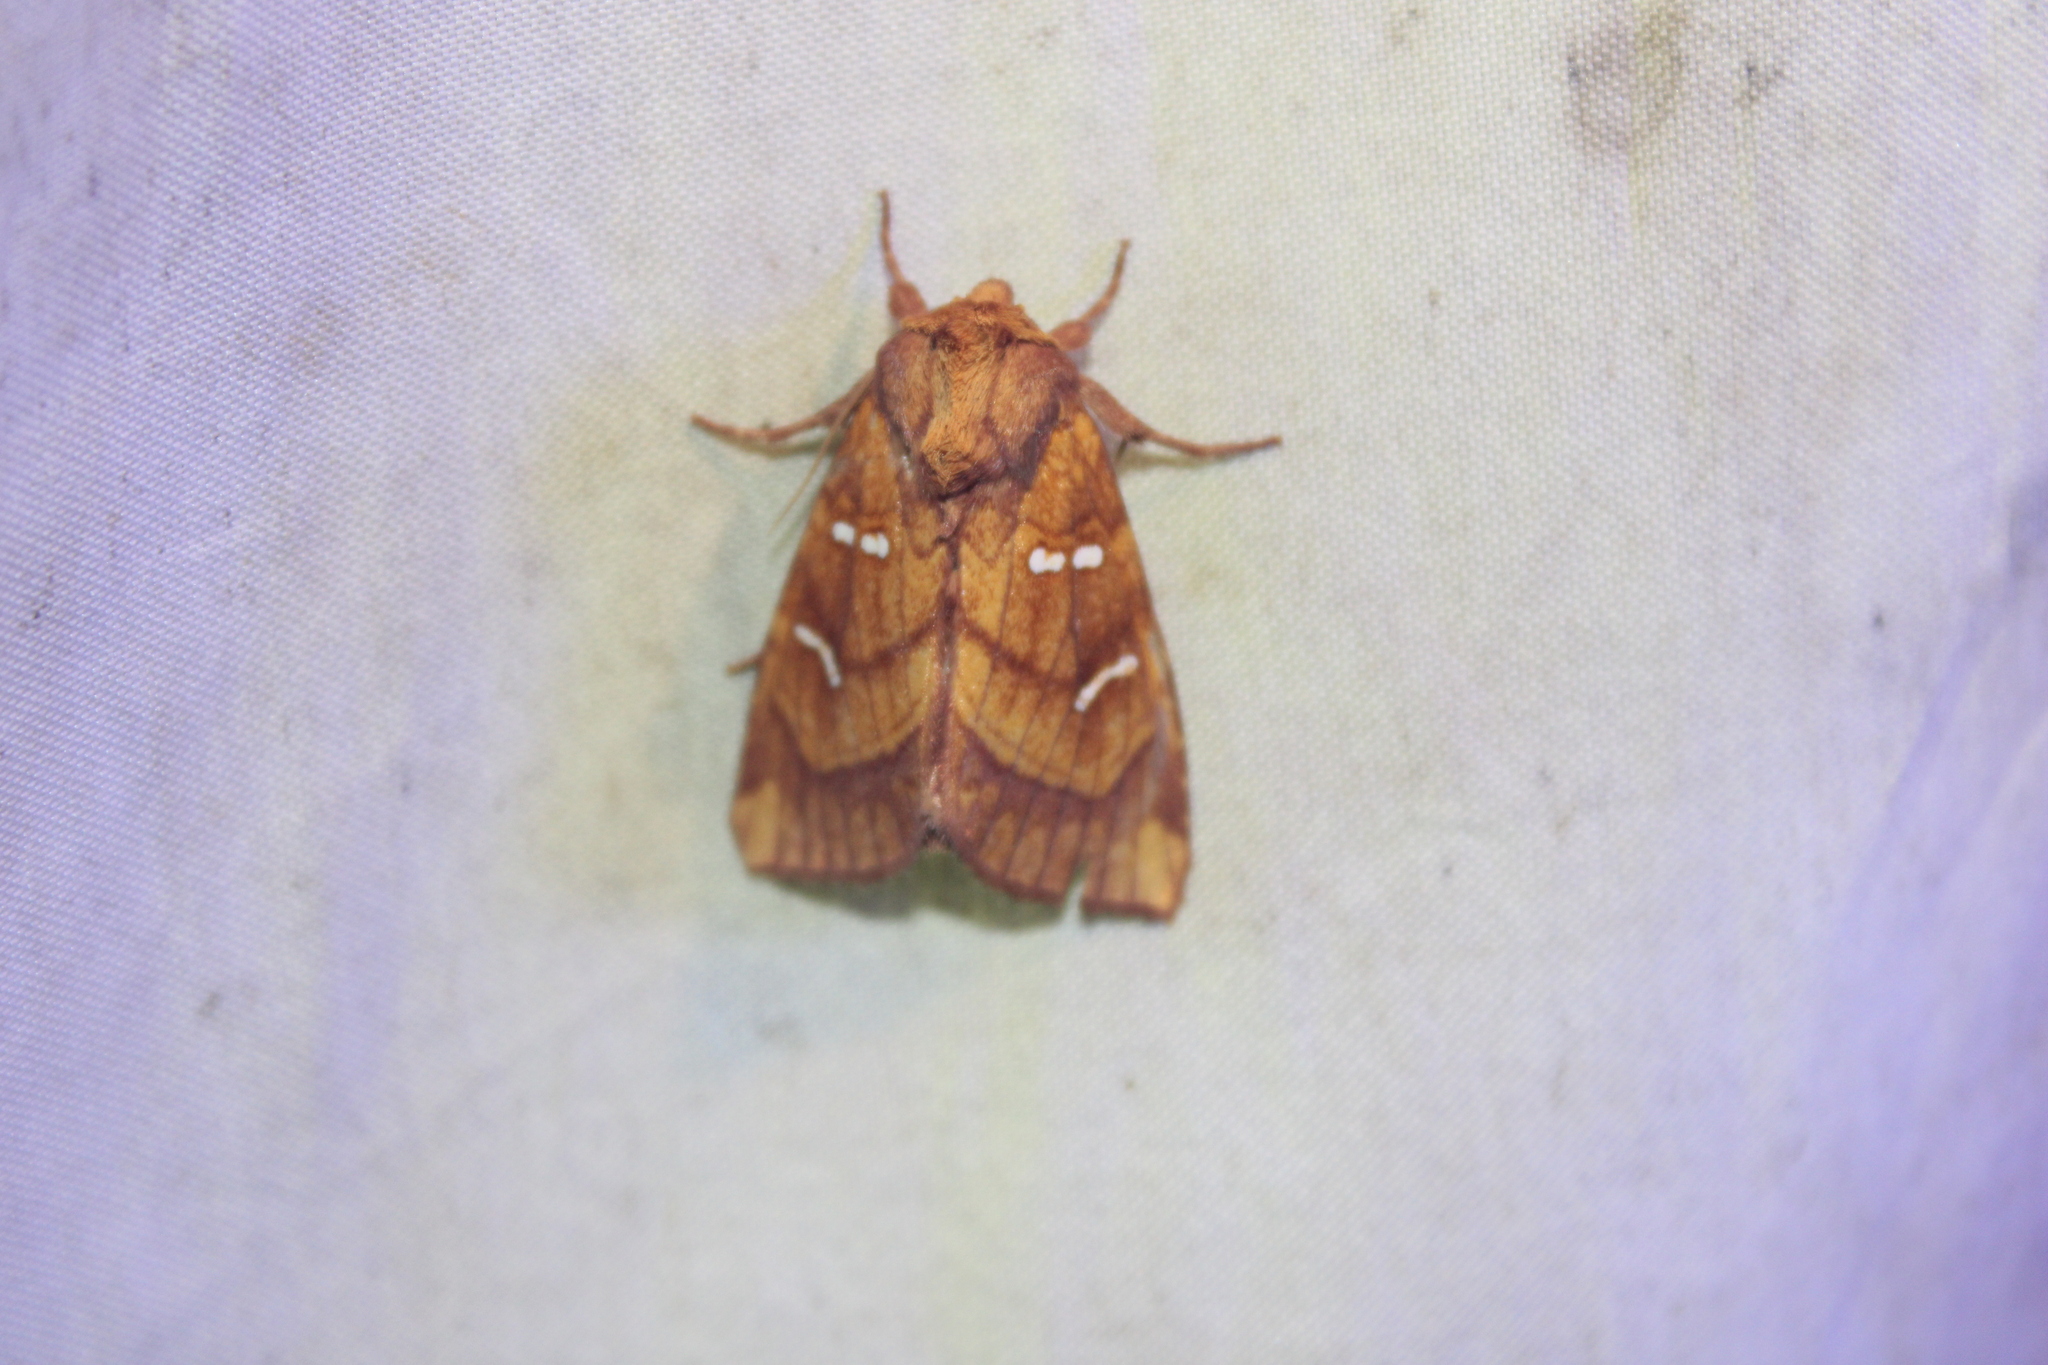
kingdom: Animalia
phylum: Arthropoda
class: Insecta
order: Lepidoptera
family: Noctuidae
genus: Papaipema
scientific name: Papaipema speciosissima
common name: Osmunda borer moth
